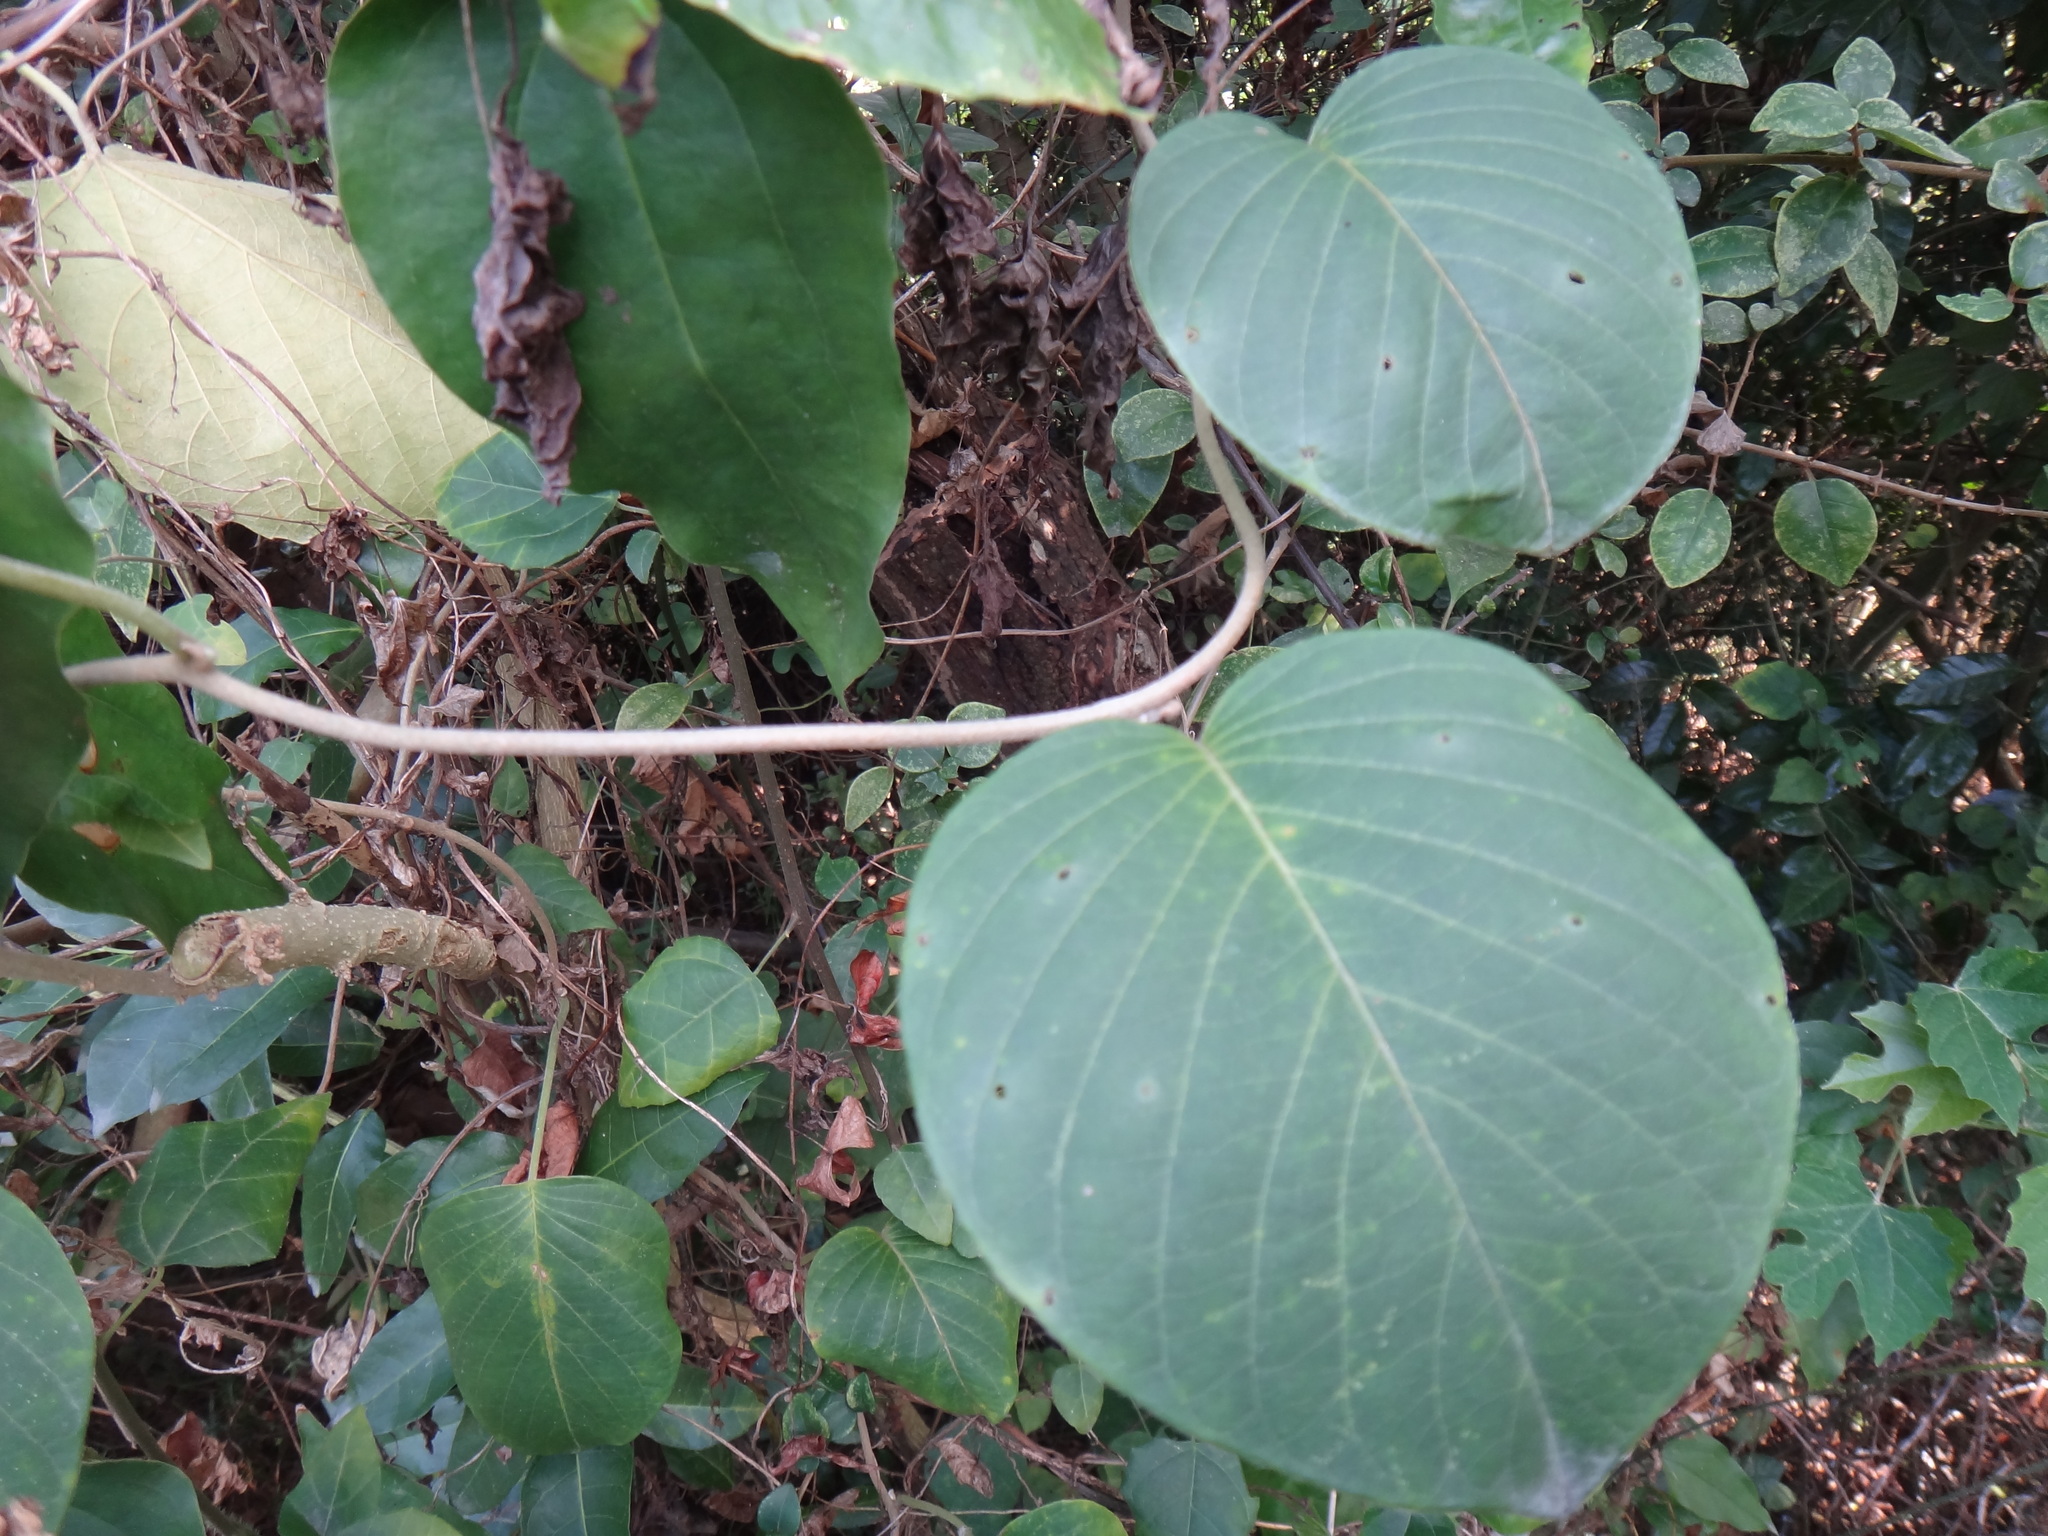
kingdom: Plantae
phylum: Tracheophyta
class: Magnoliopsida
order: Solanales
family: Convolvulaceae
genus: Argyreia
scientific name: Argyreia formosana
